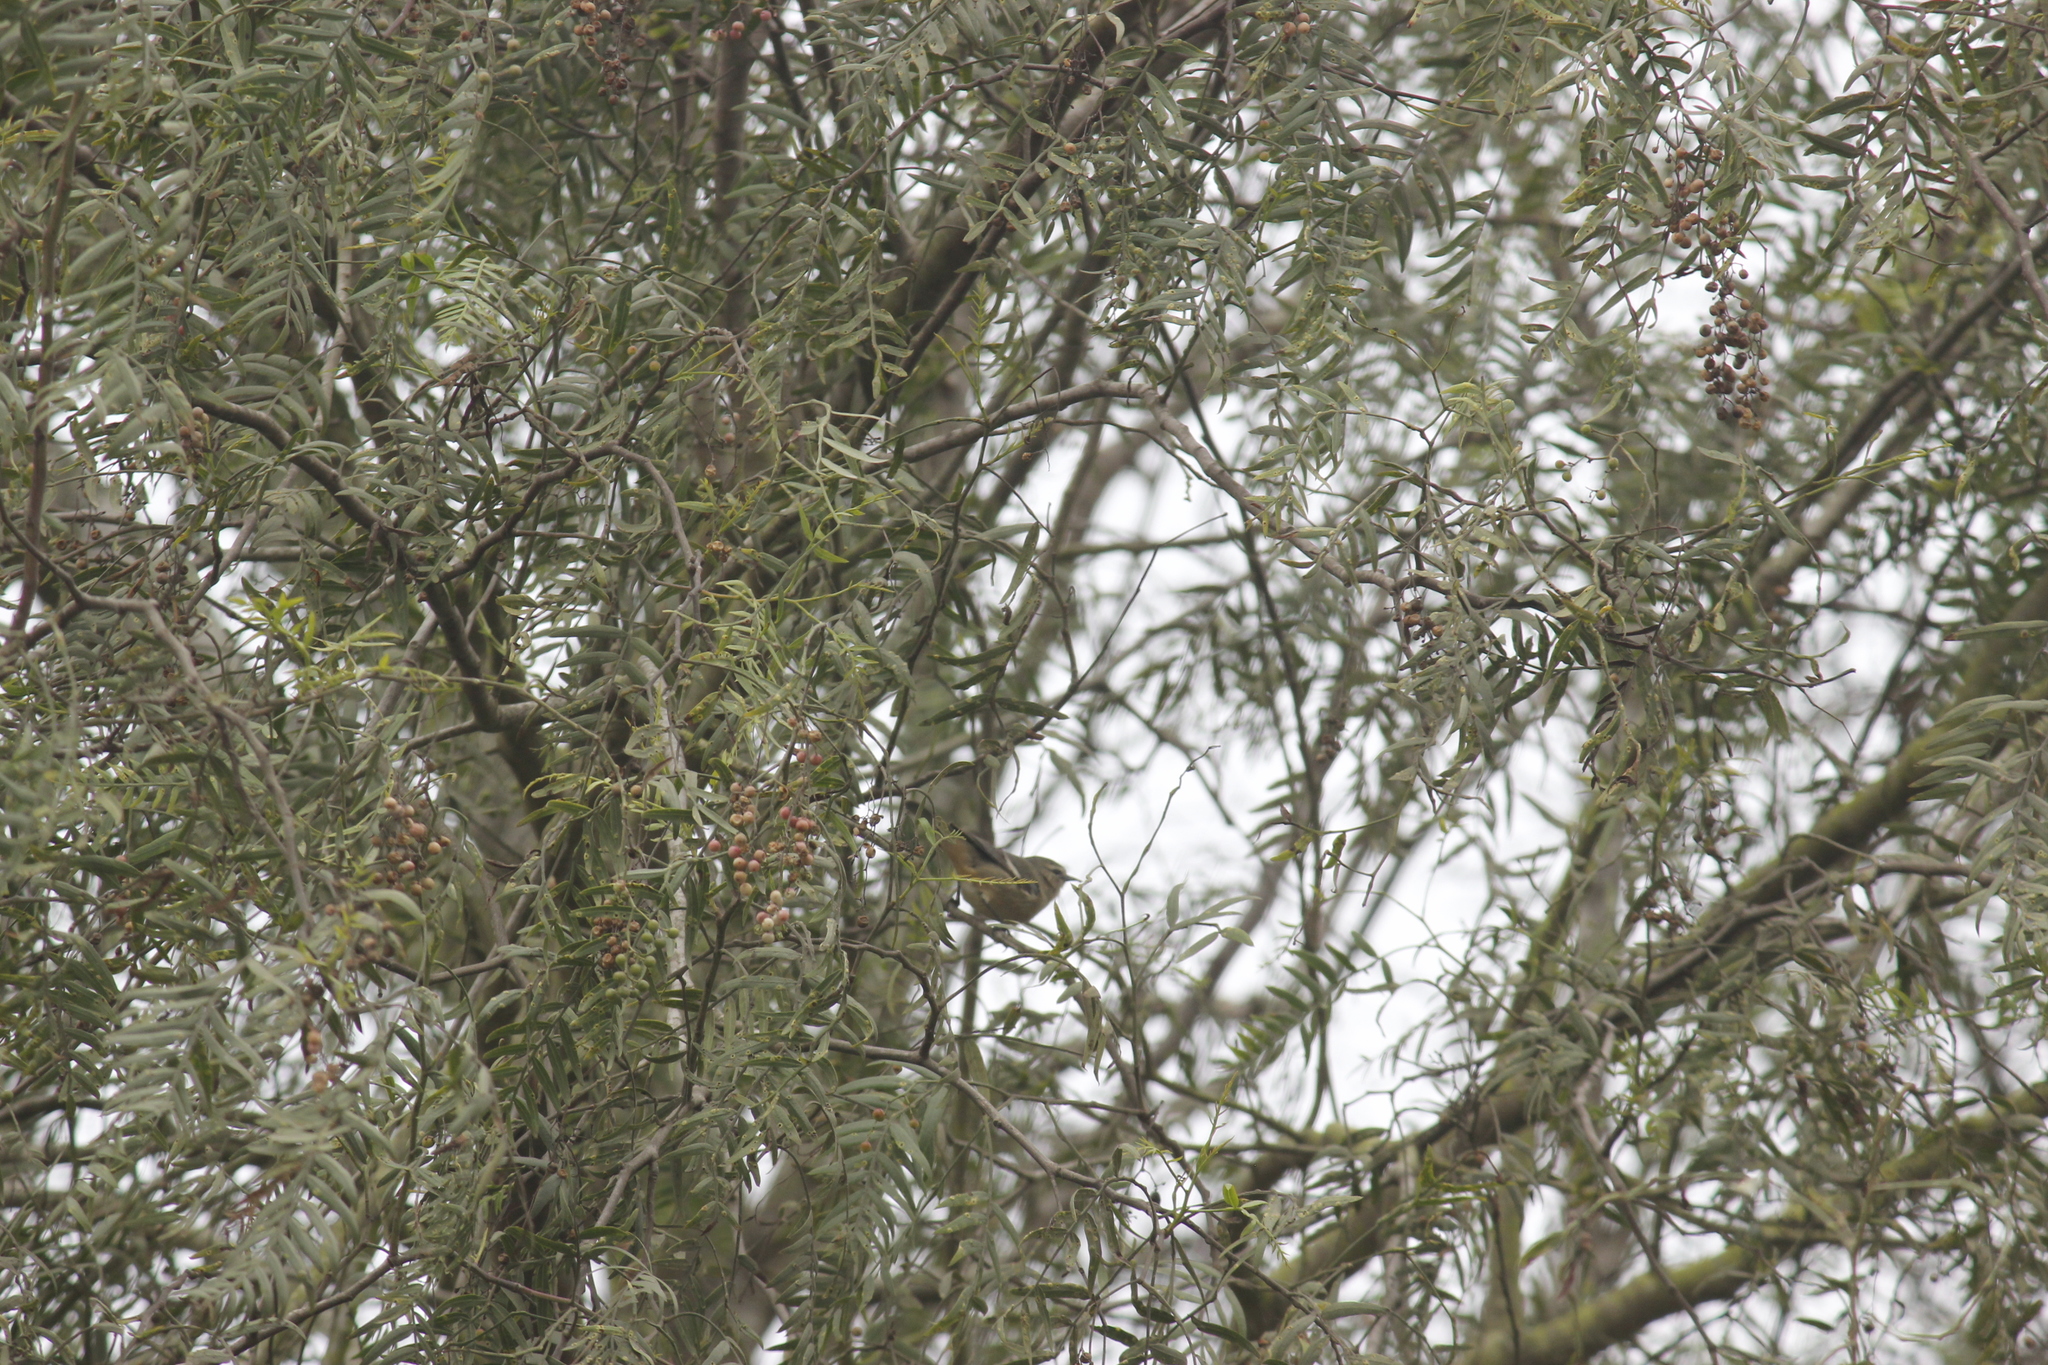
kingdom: Animalia
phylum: Chordata
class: Aves
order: Passeriformes
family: Thraupidae
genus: Conirostrum
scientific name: Conirostrum cinereum
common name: Cinereous conebill
